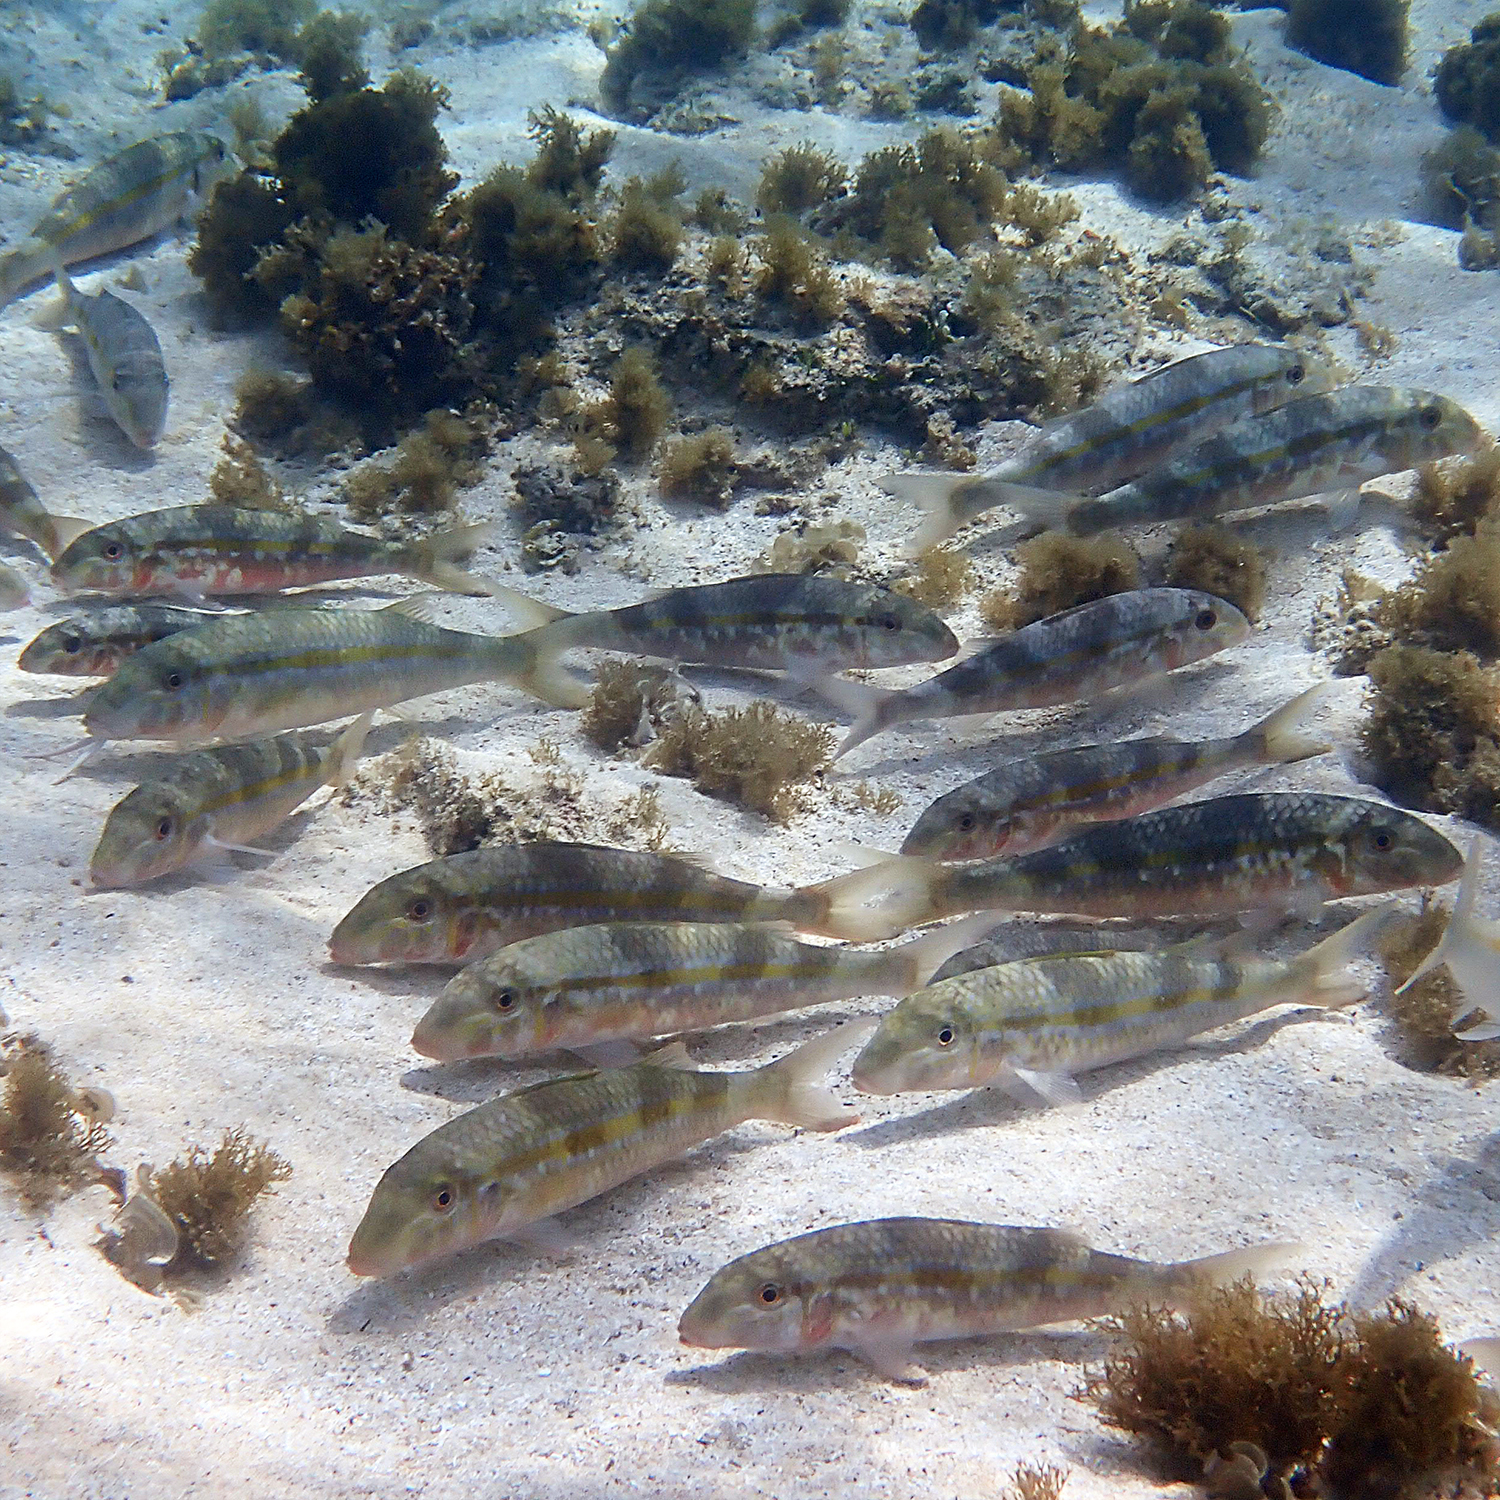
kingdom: Animalia
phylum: Chordata
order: Perciformes
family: Mullidae
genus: Mulloidichthys
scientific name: Mulloidichthys flavolineatus
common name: Yellowstripe goatfish
